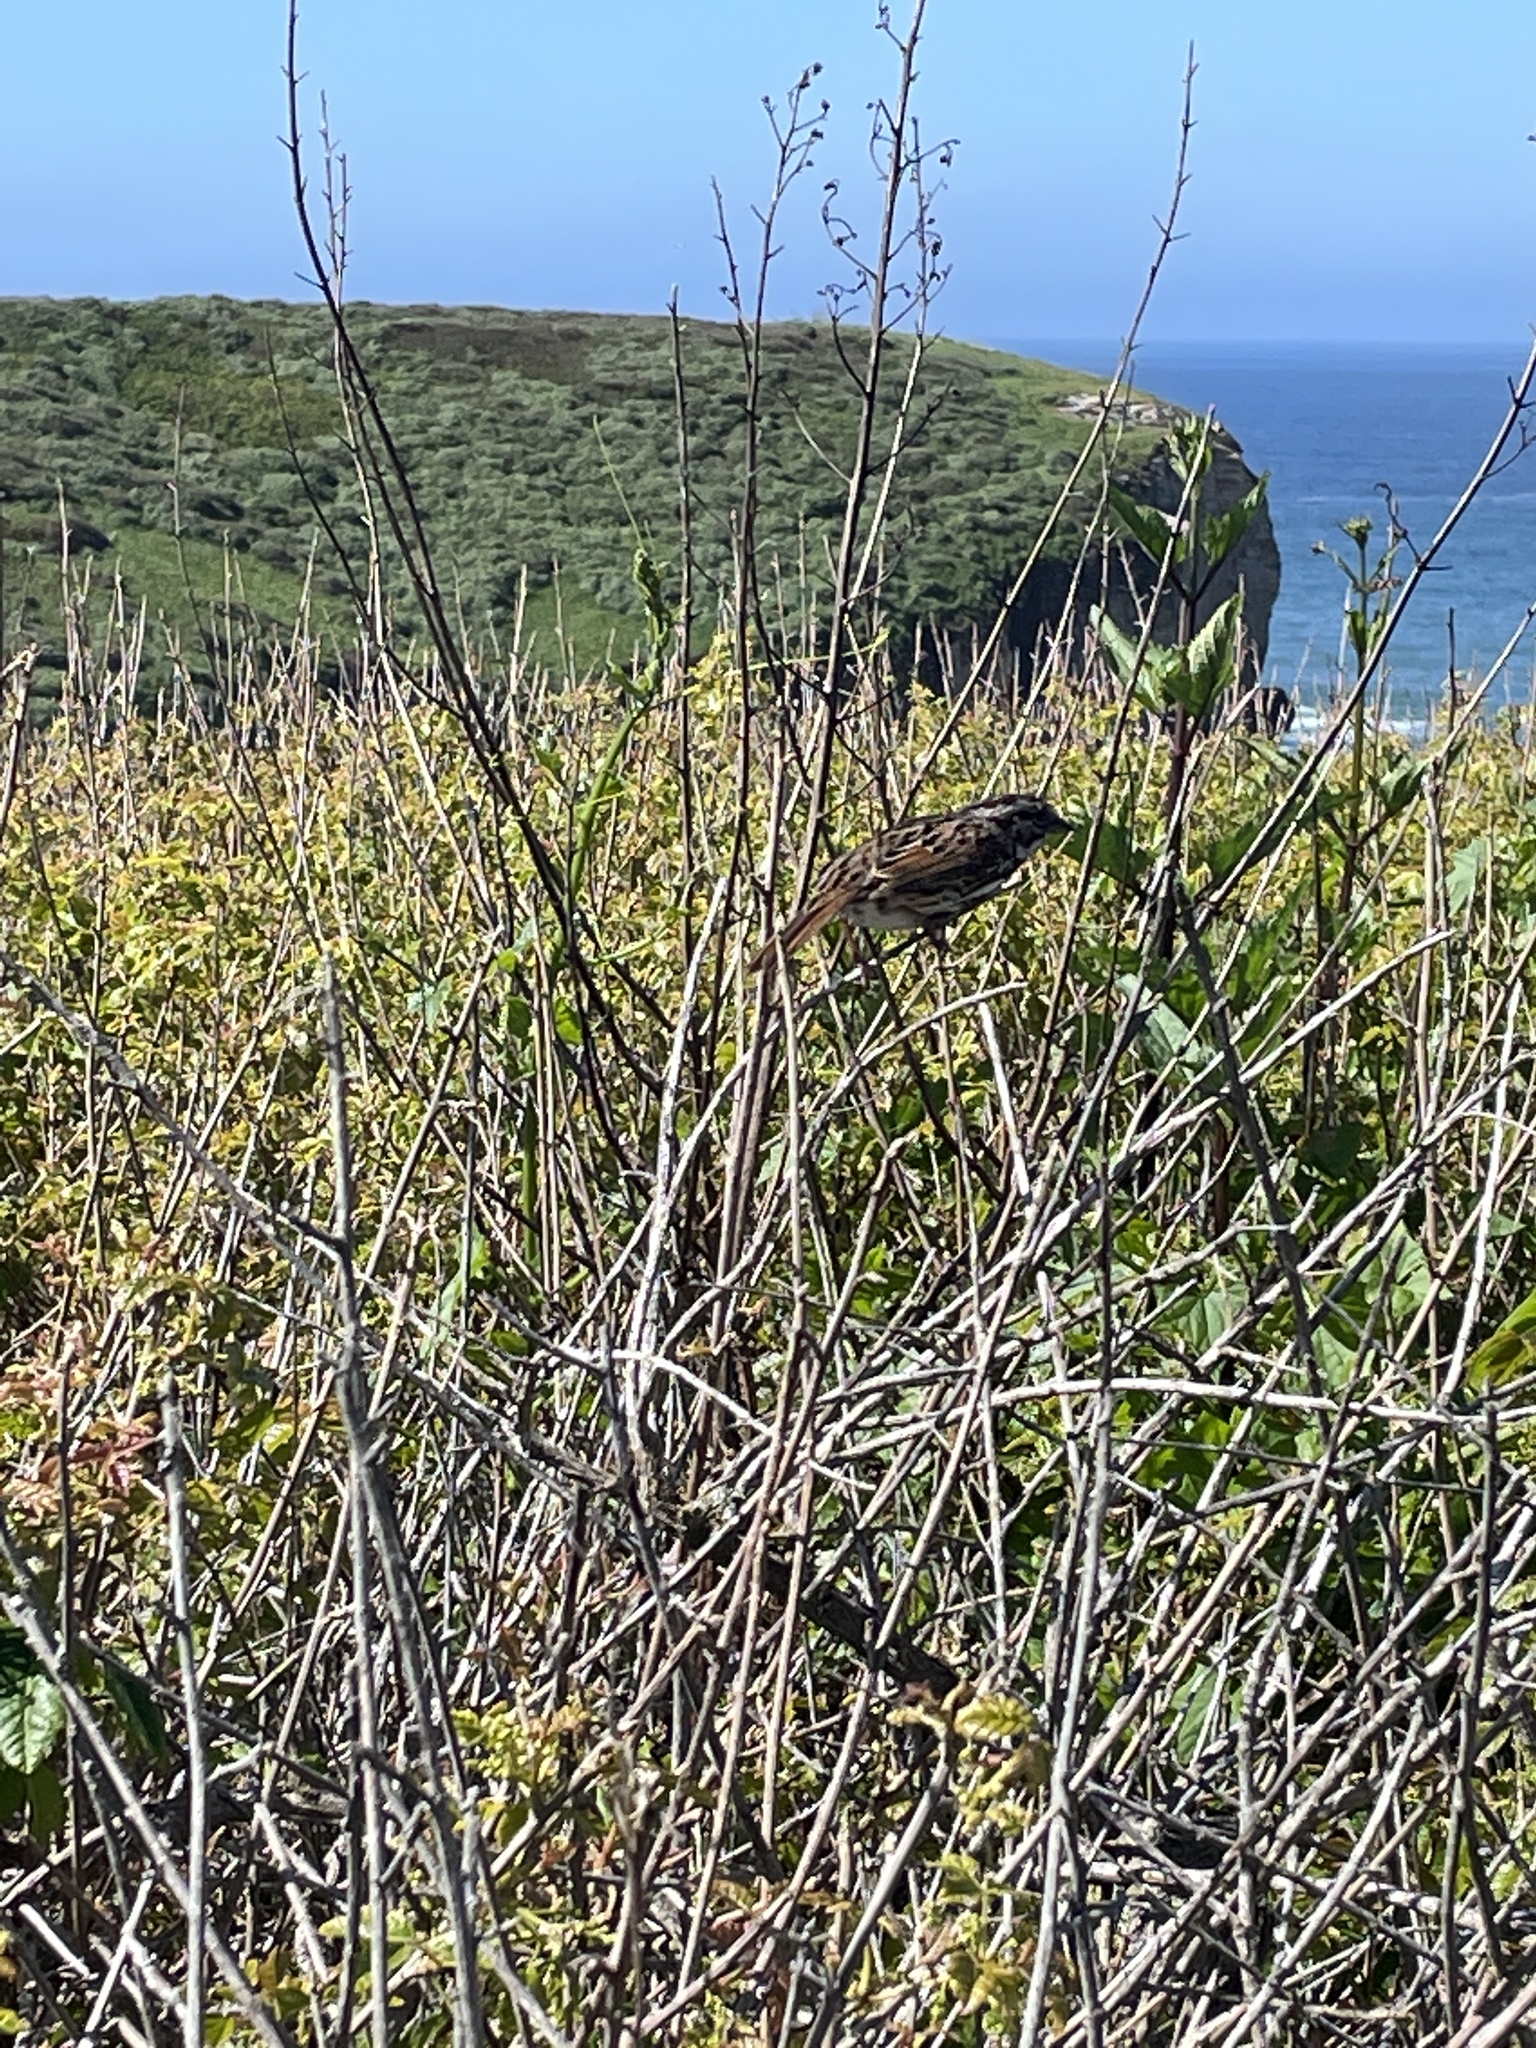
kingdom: Animalia
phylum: Chordata
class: Aves
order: Passeriformes
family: Passerellidae
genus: Melospiza
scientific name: Melospiza melodia
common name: Song sparrow
